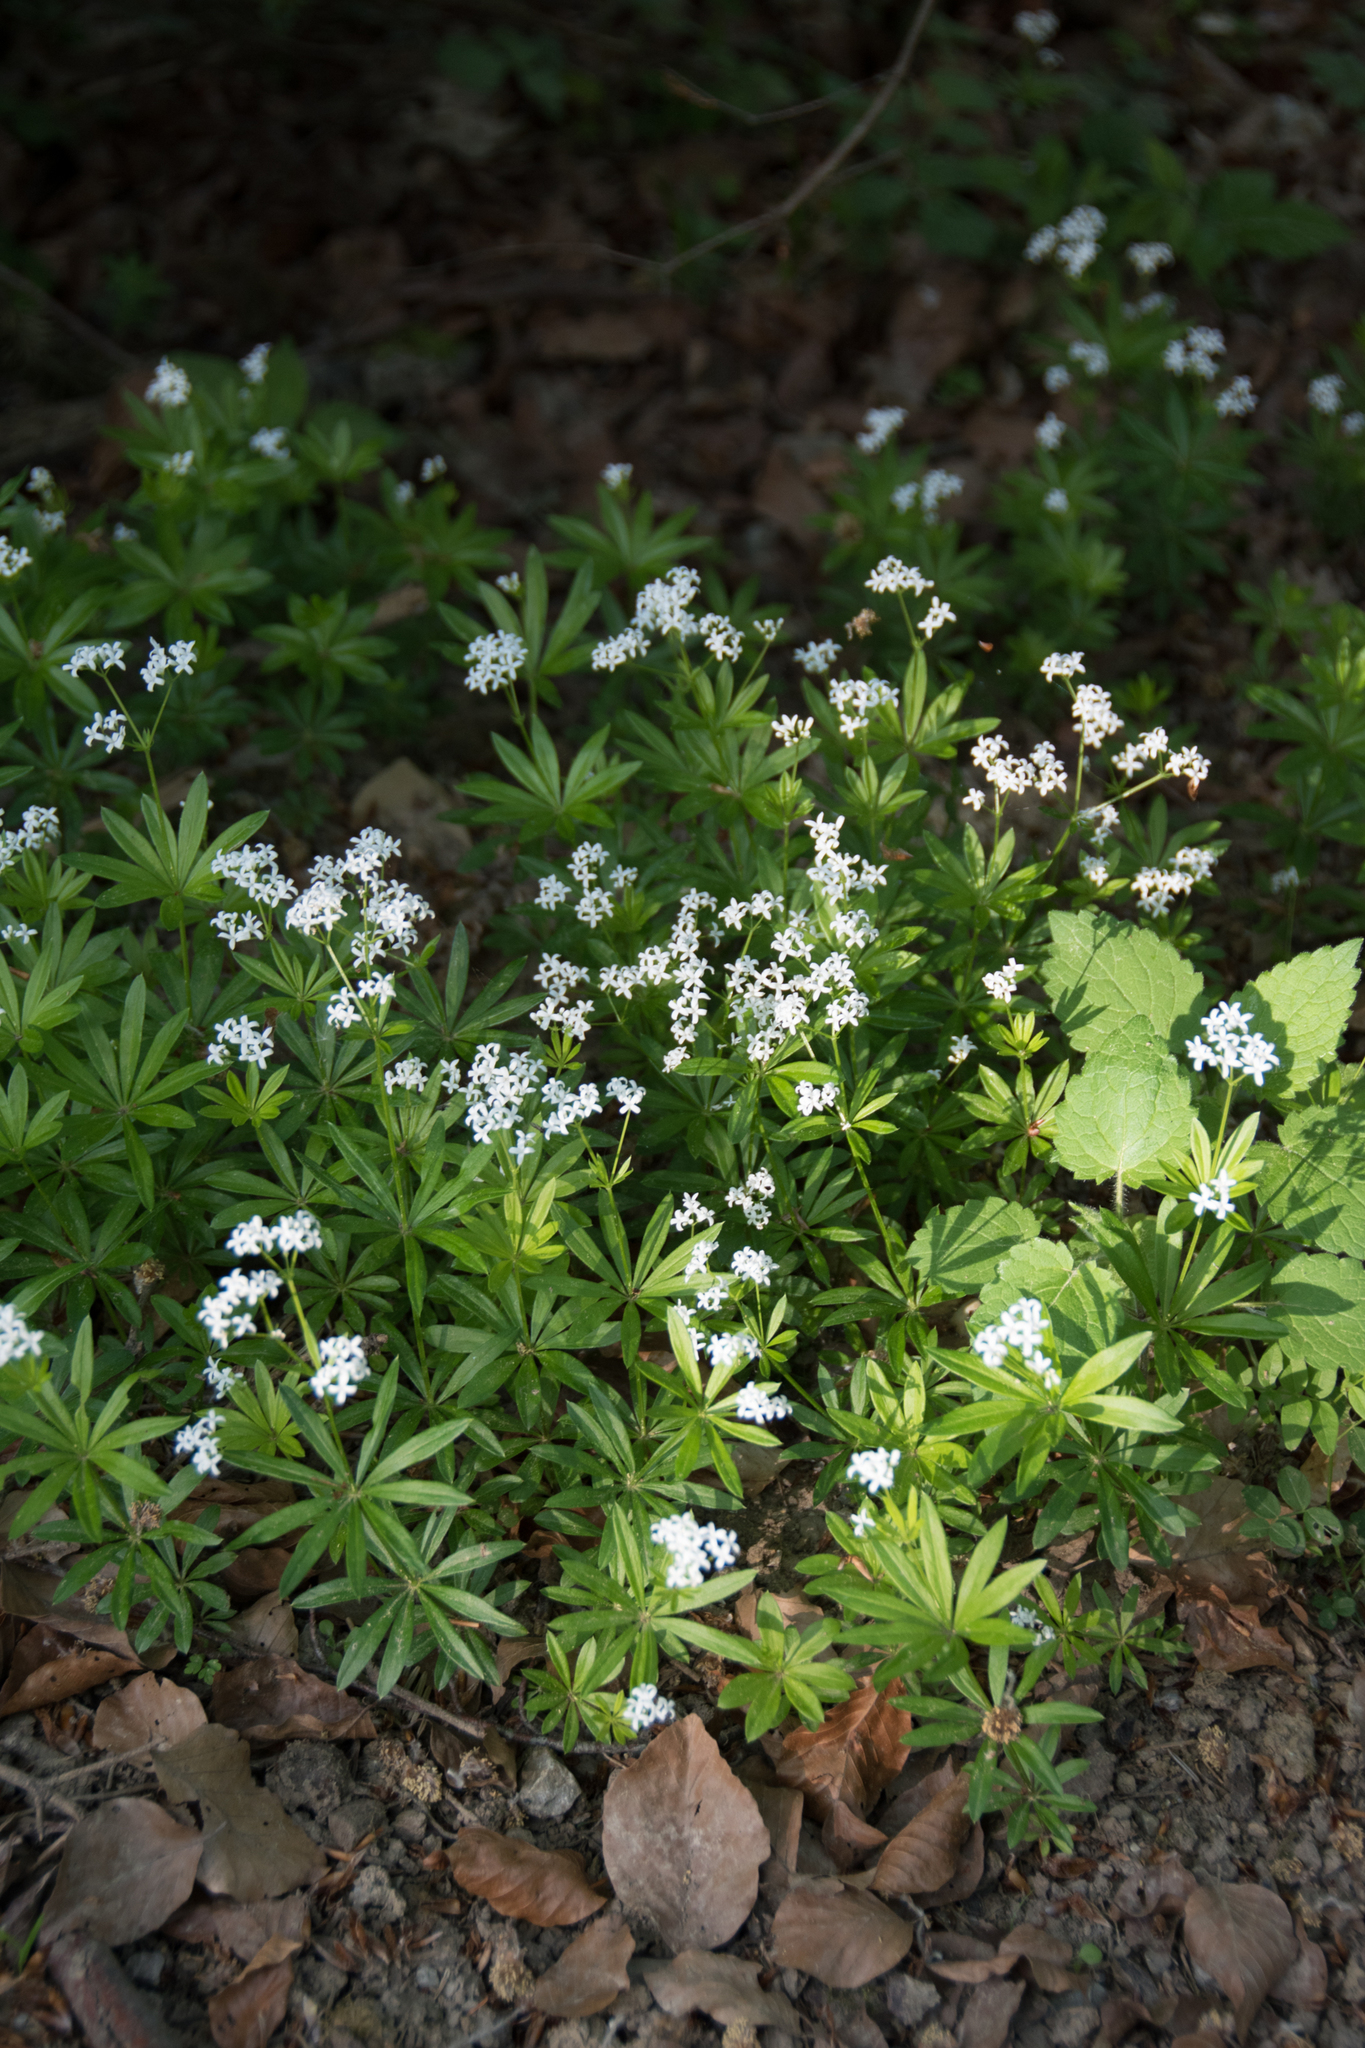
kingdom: Plantae
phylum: Tracheophyta
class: Magnoliopsida
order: Gentianales
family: Rubiaceae
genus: Galium
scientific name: Galium odoratum
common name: Sweet woodruff
